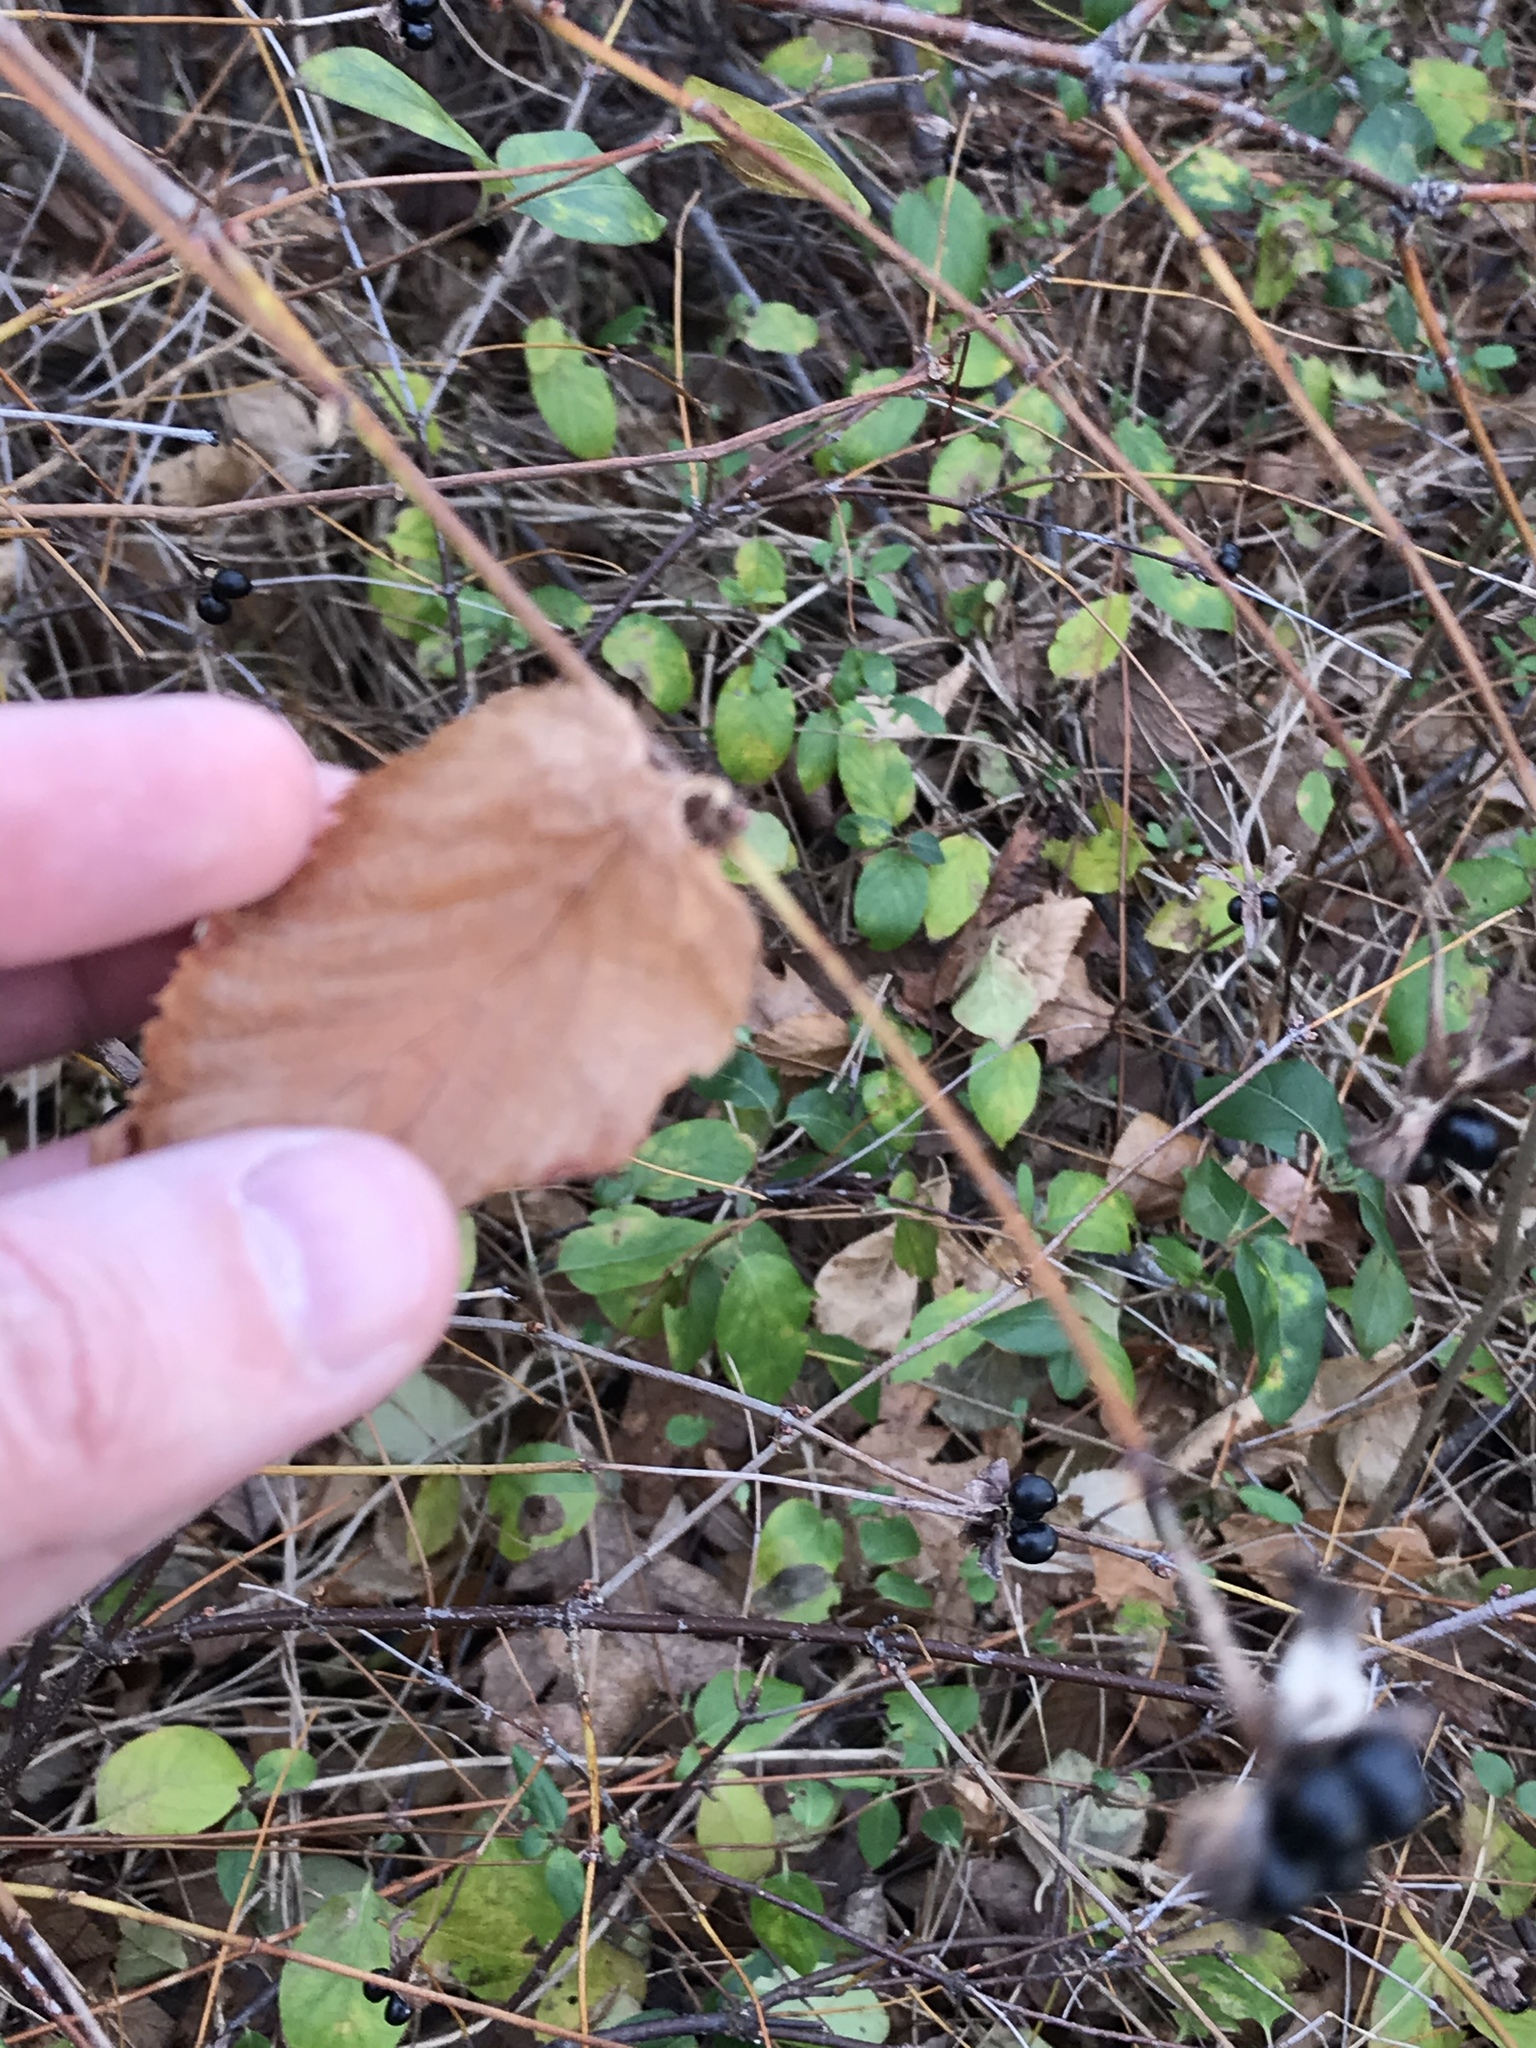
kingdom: Plantae
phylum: Tracheophyta
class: Magnoliopsida
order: Rosales
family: Rosaceae
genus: Rhodotypos
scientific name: Rhodotypos scandens
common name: Jetbead
